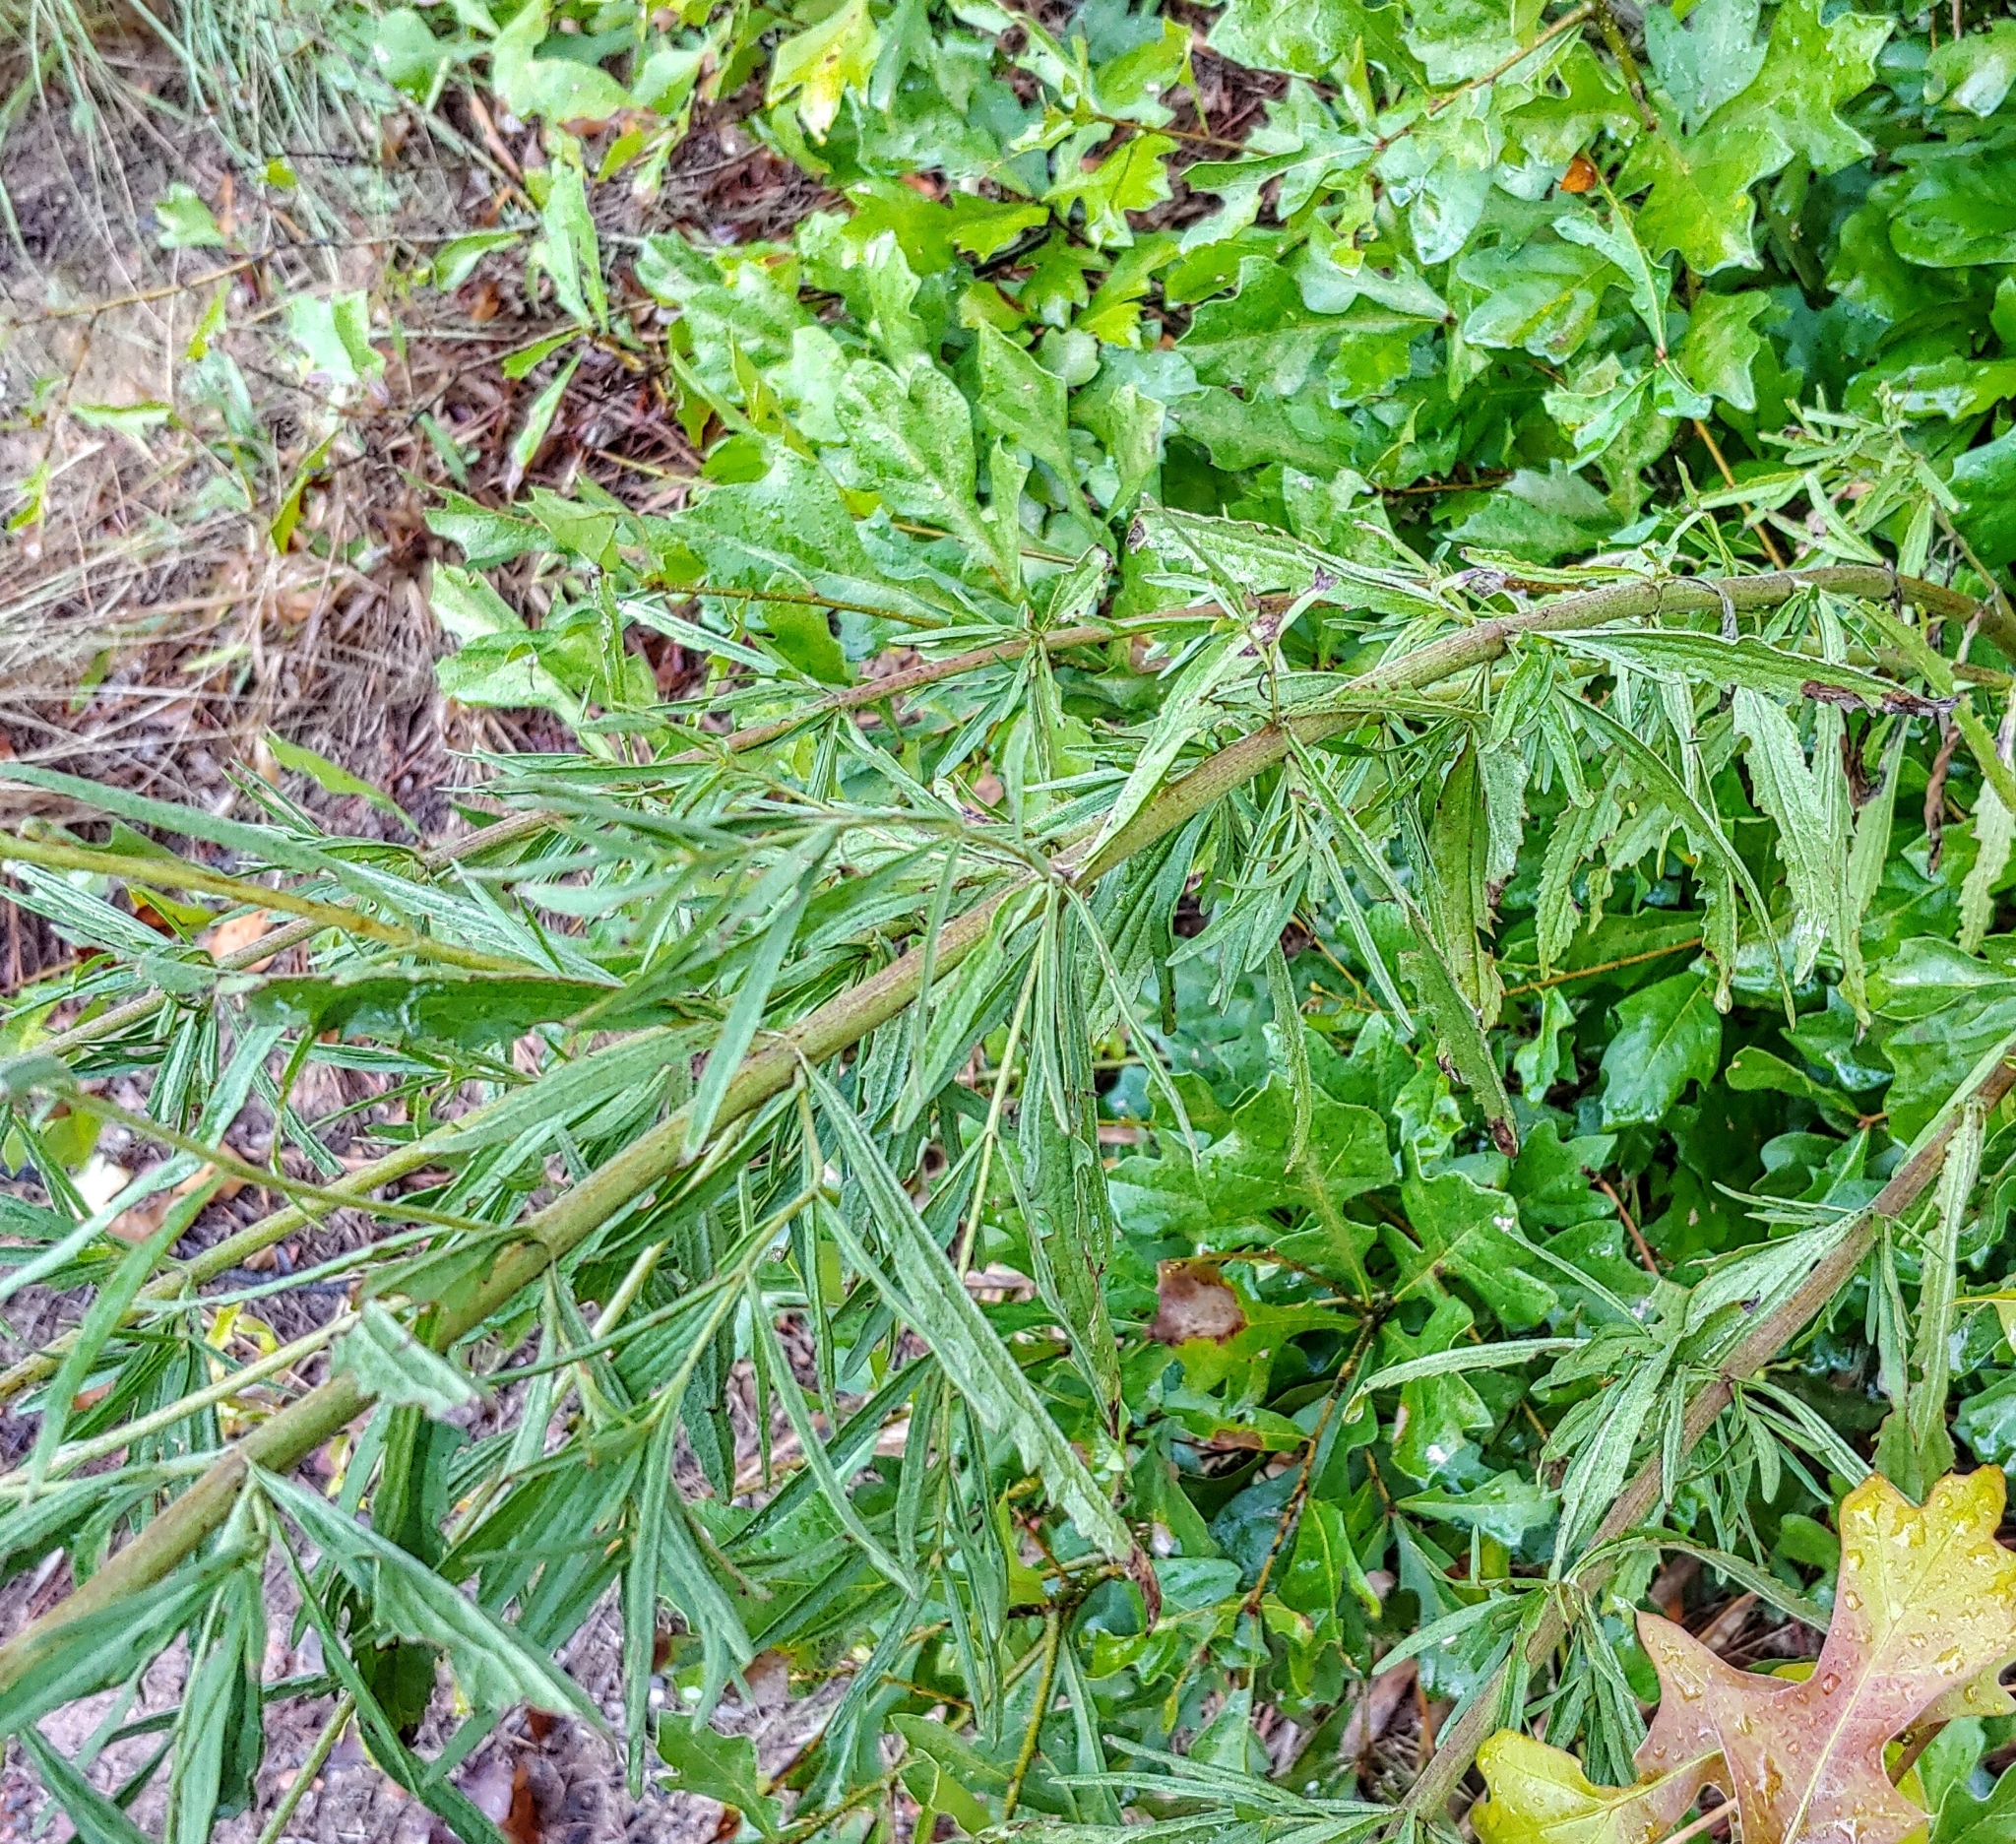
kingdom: Plantae
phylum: Tracheophyta
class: Magnoliopsida
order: Asterales
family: Asteraceae
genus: Eupatorium
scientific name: Eupatorium torreyanum
